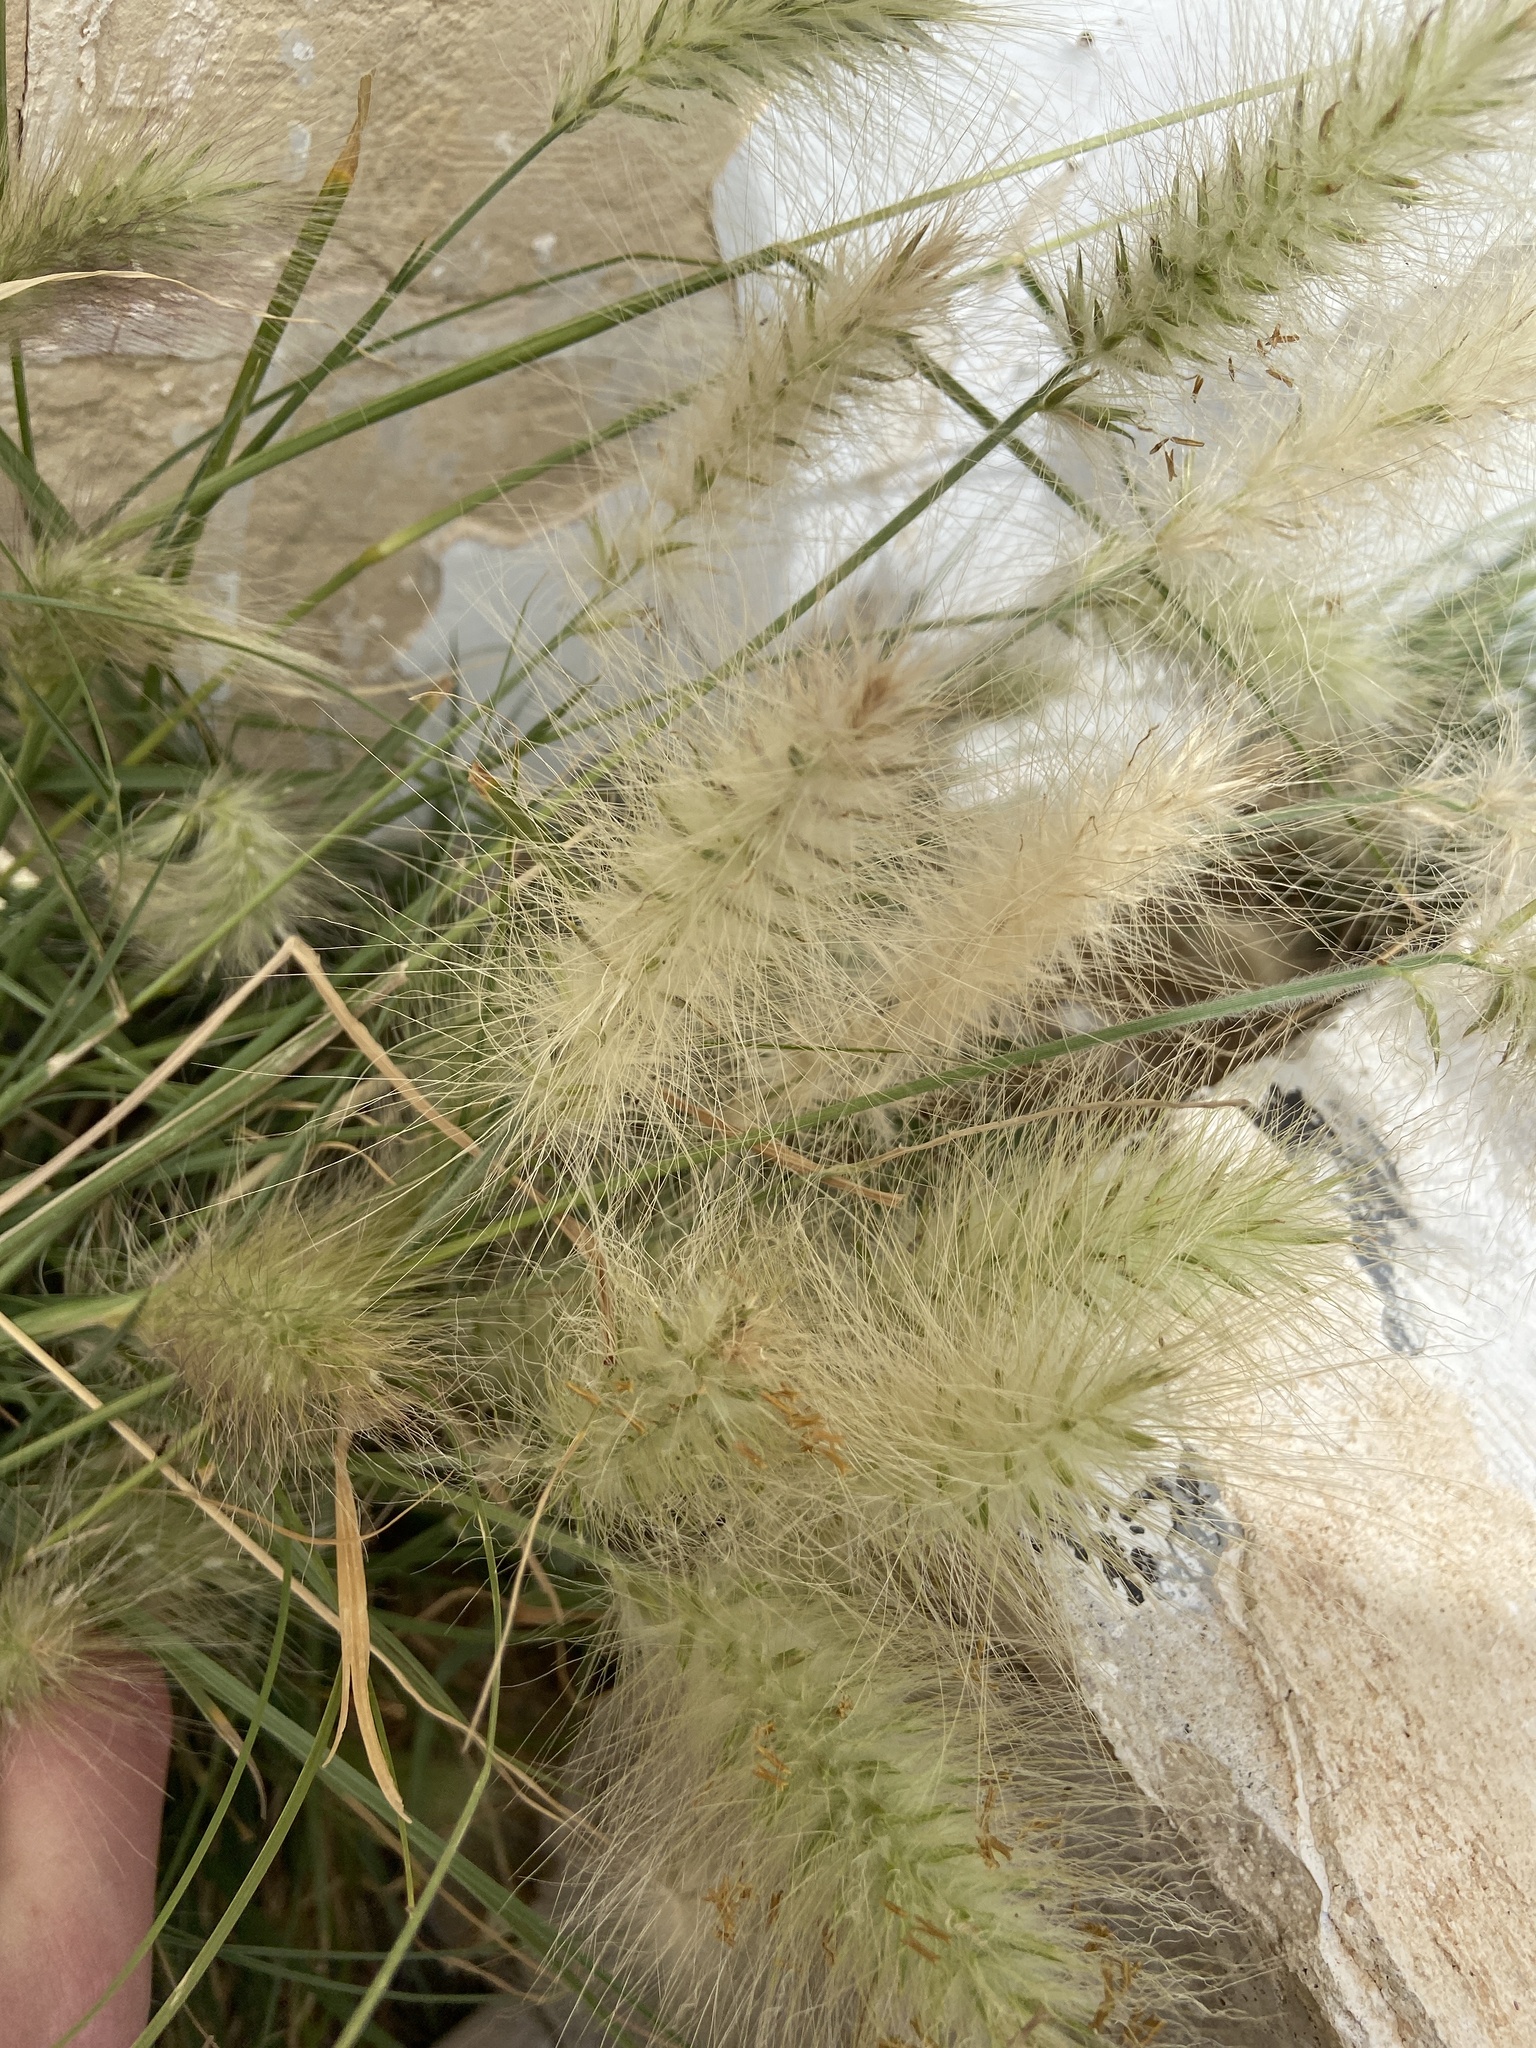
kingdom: Plantae
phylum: Tracheophyta
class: Liliopsida
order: Poales
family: Poaceae
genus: Cenchrus
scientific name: Cenchrus setaceus
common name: Crimson fountaingrass
